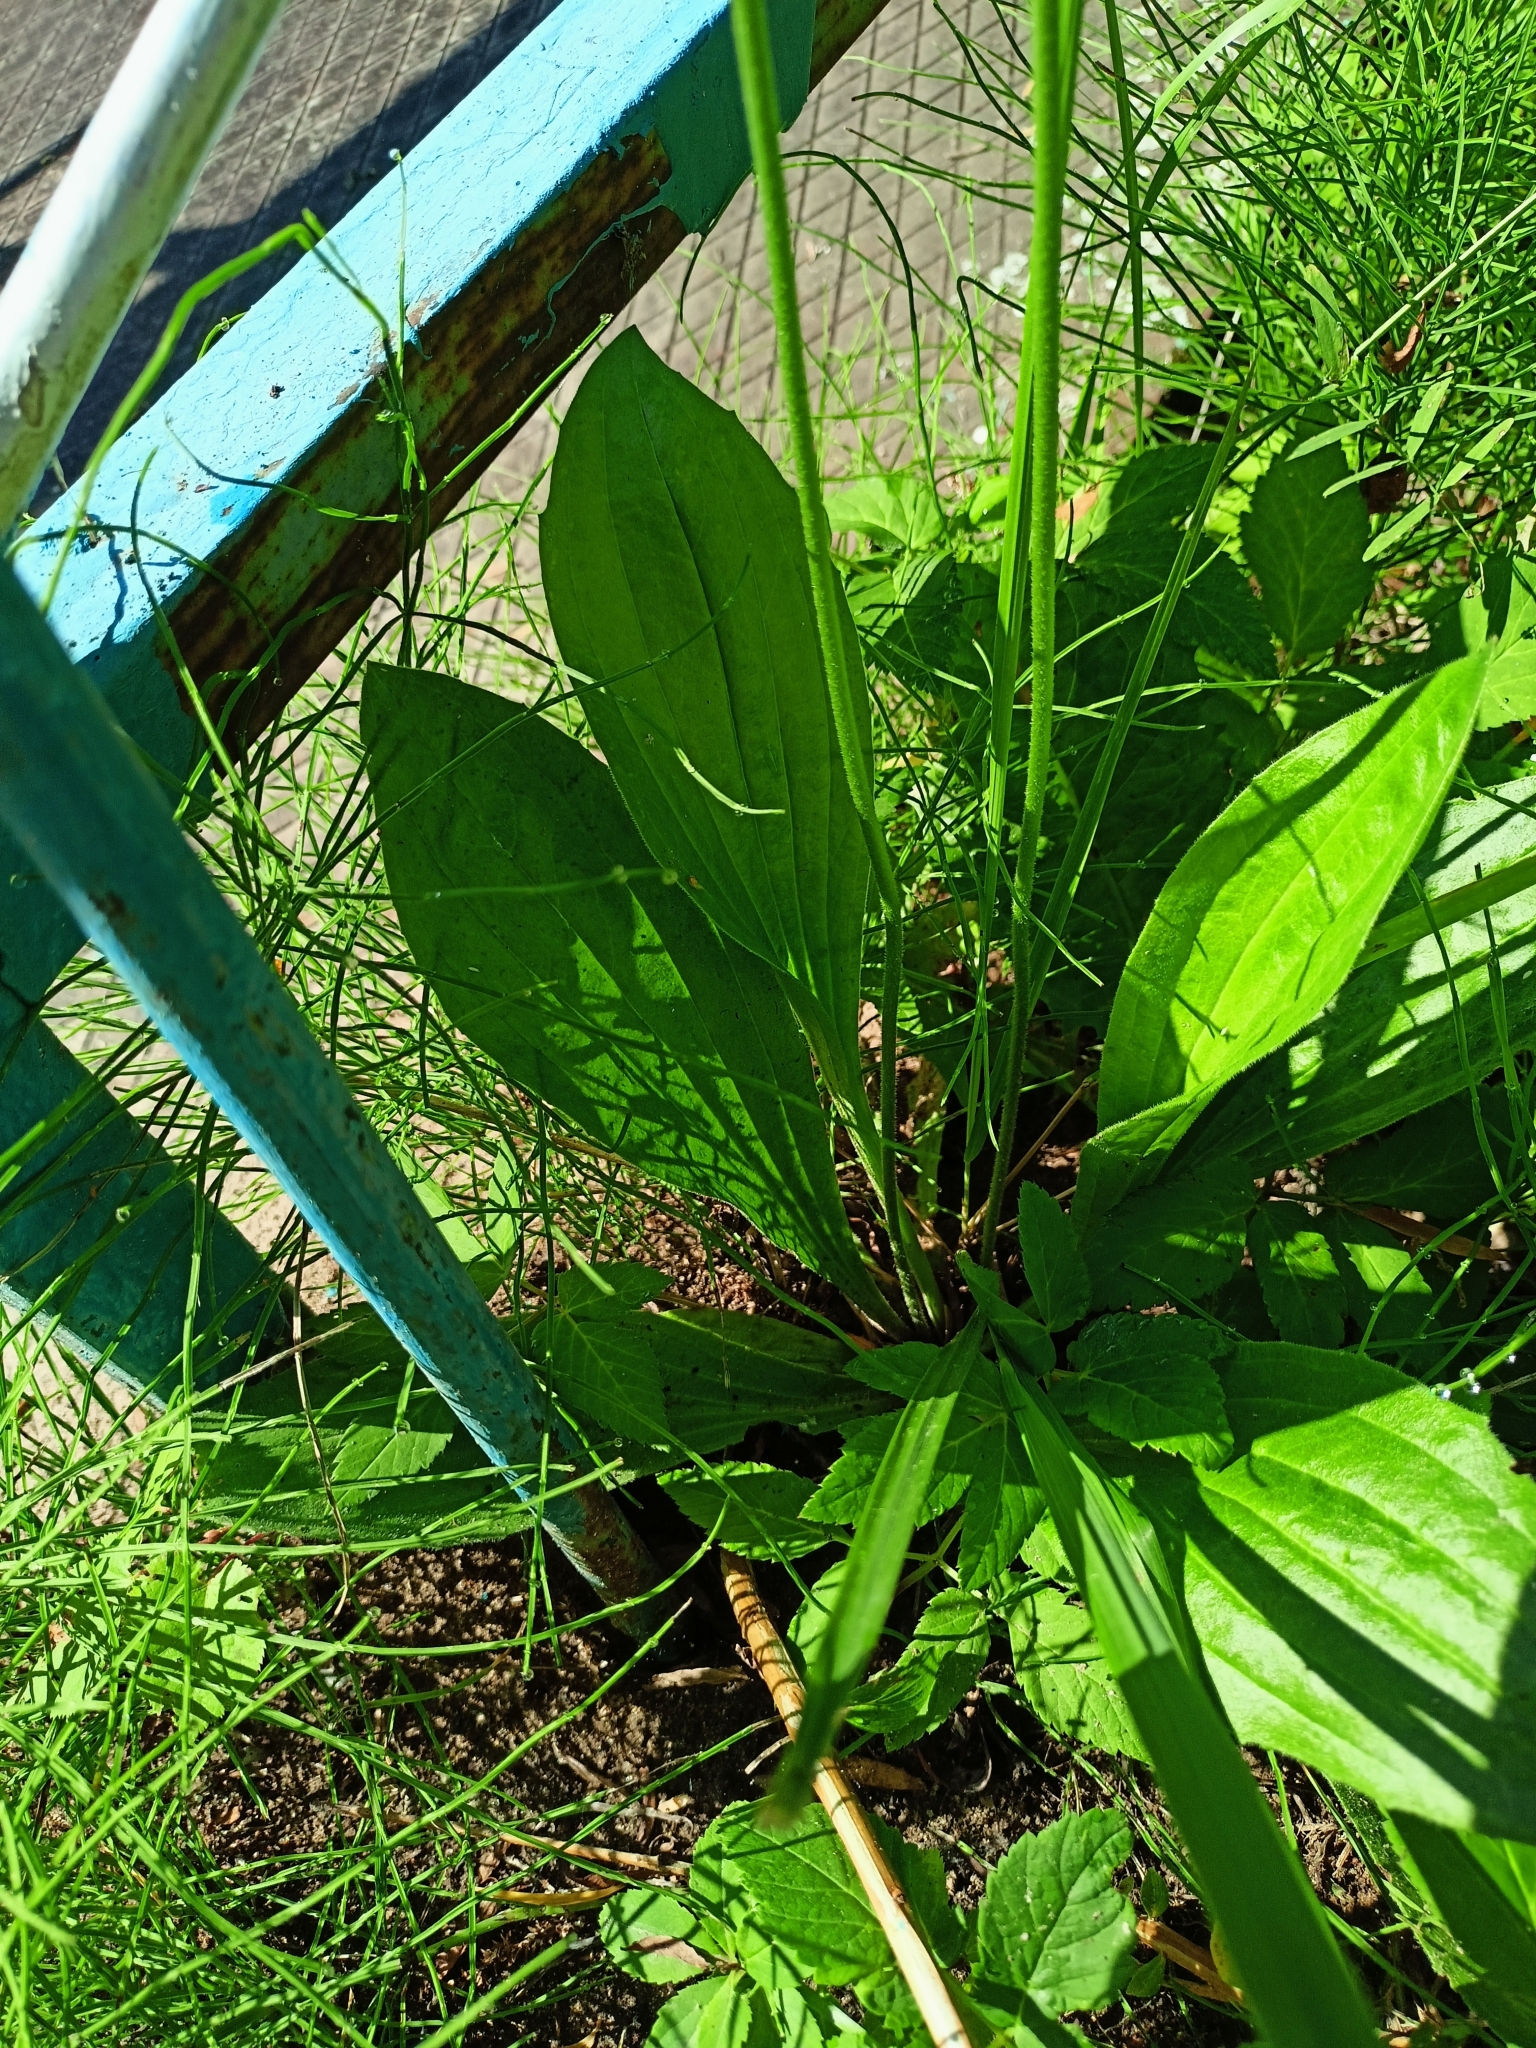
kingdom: Plantae
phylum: Tracheophyta
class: Magnoliopsida
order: Lamiales
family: Plantaginaceae
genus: Plantago
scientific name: Plantago media
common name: Hoary plantain
